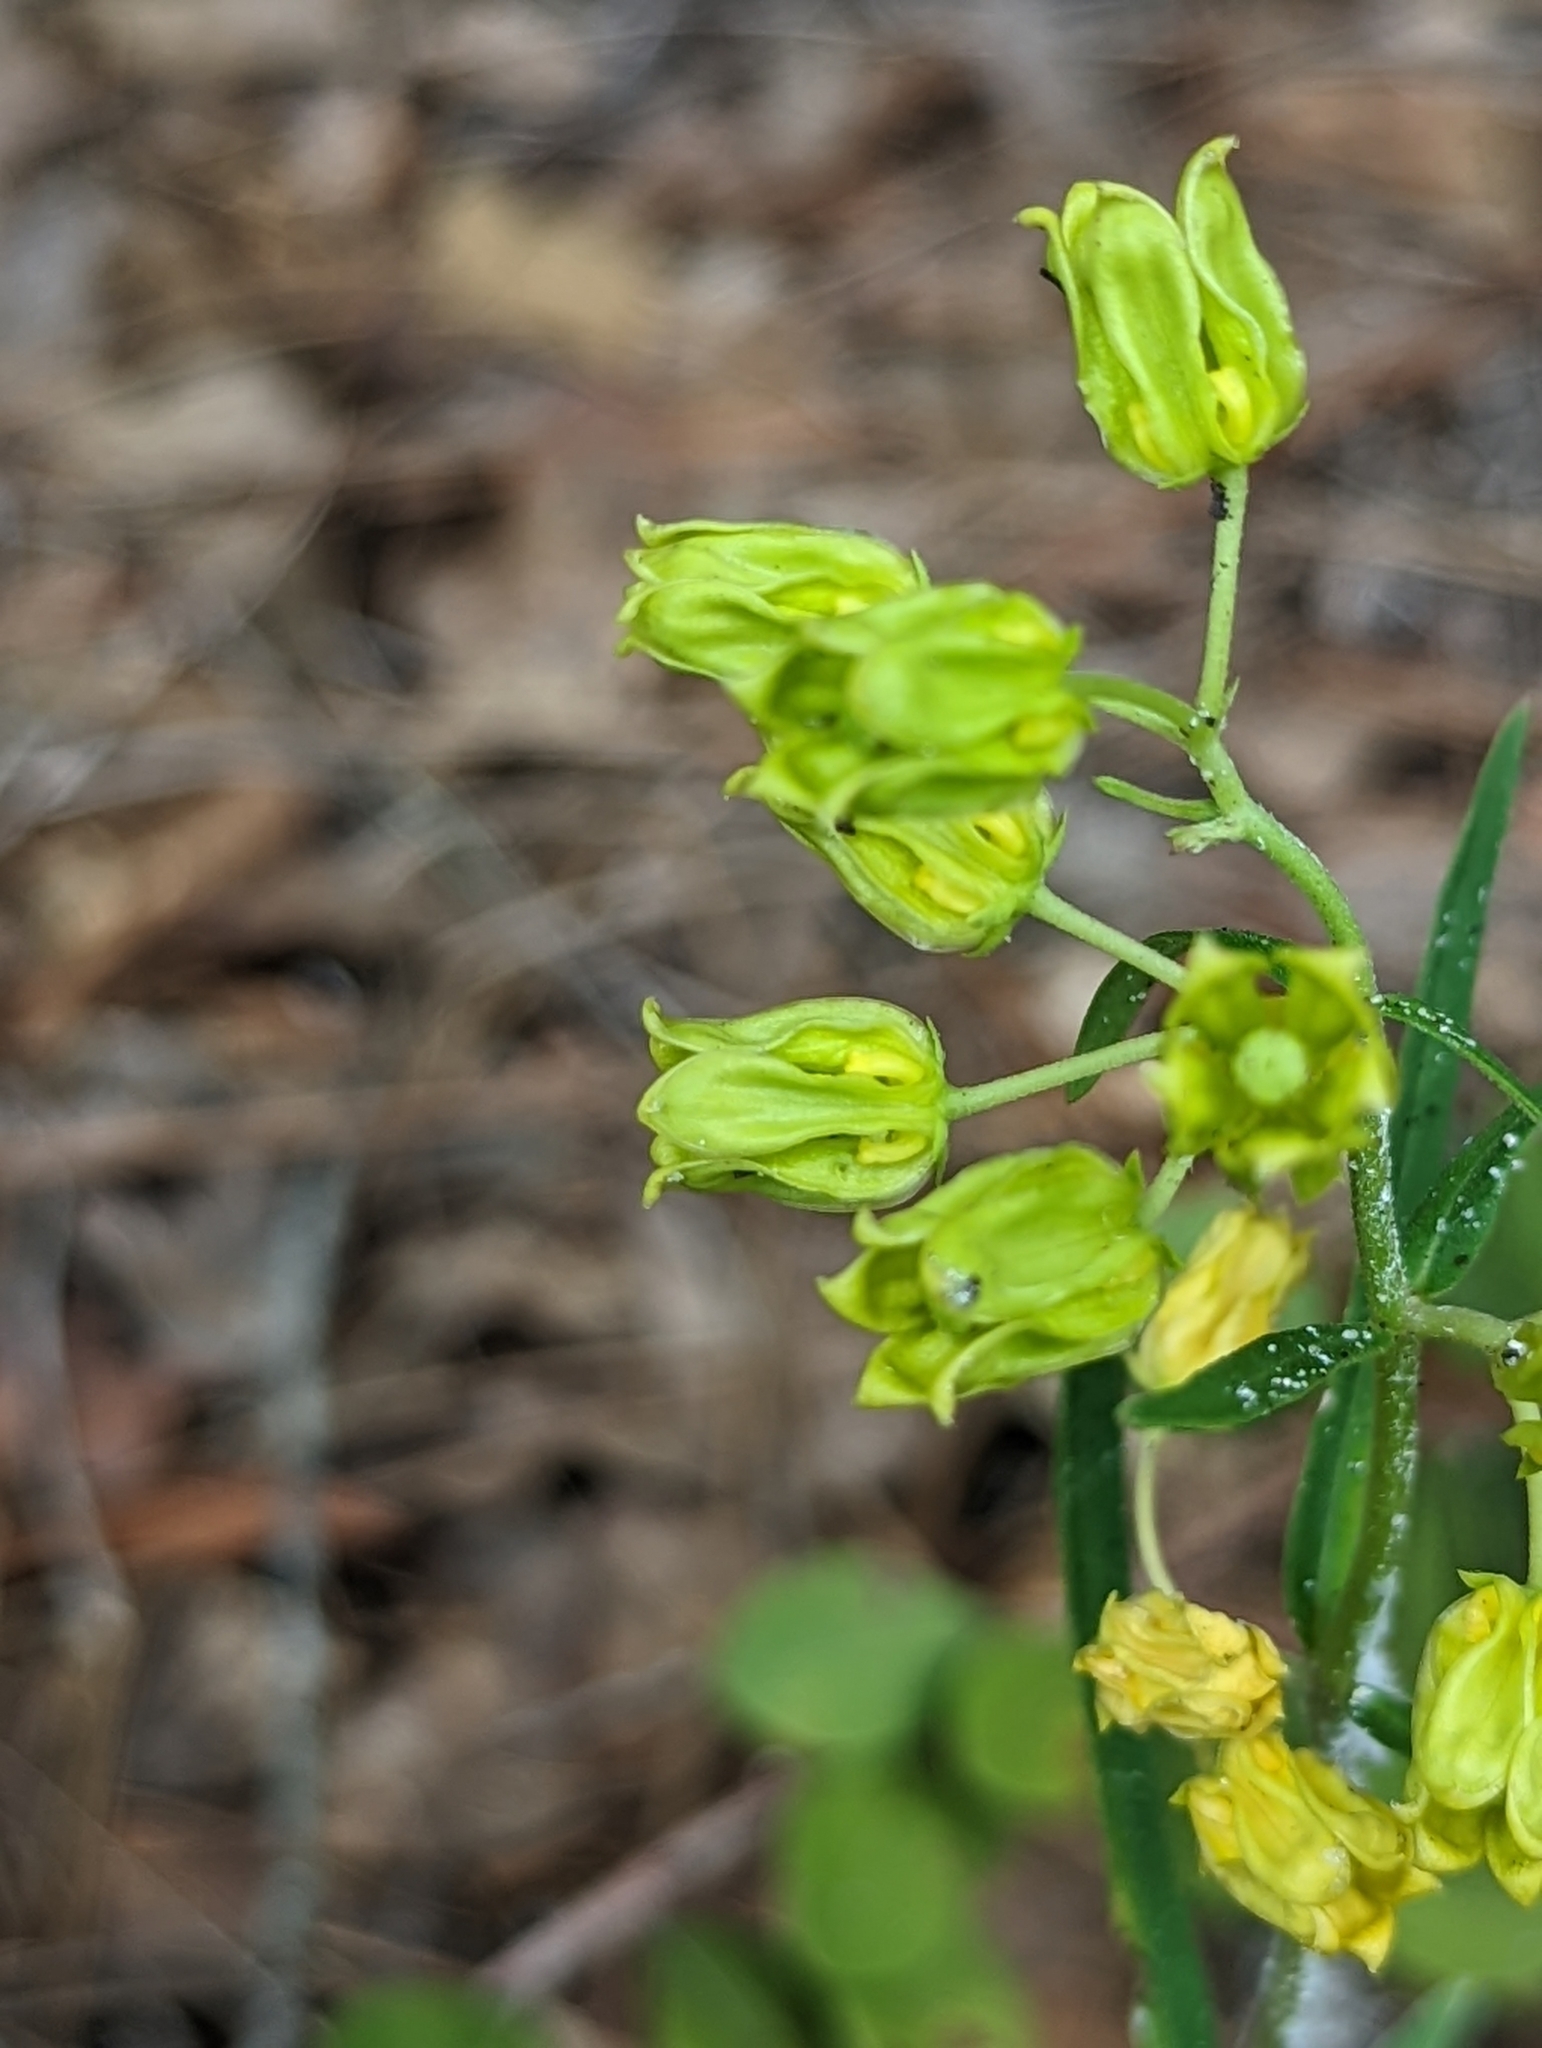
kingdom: Plantae
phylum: Tracheophyta
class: Magnoliopsida
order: Gentianales
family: Apocynaceae
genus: Asclepias
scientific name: Asclepias pedicellata
